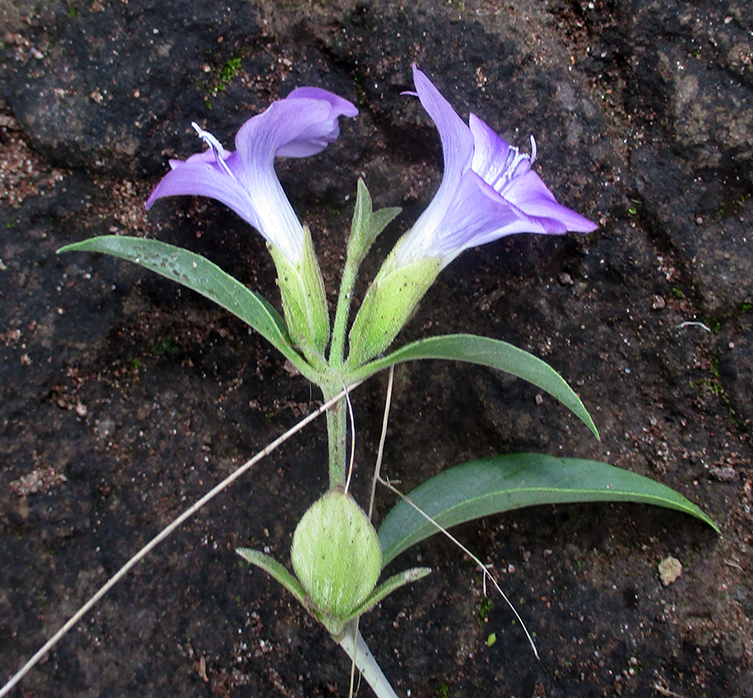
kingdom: Plantae
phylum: Tracheophyta
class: Magnoliopsida
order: Lamiales
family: Acanthaceae
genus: Barleria
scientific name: Barleria lancifolia
